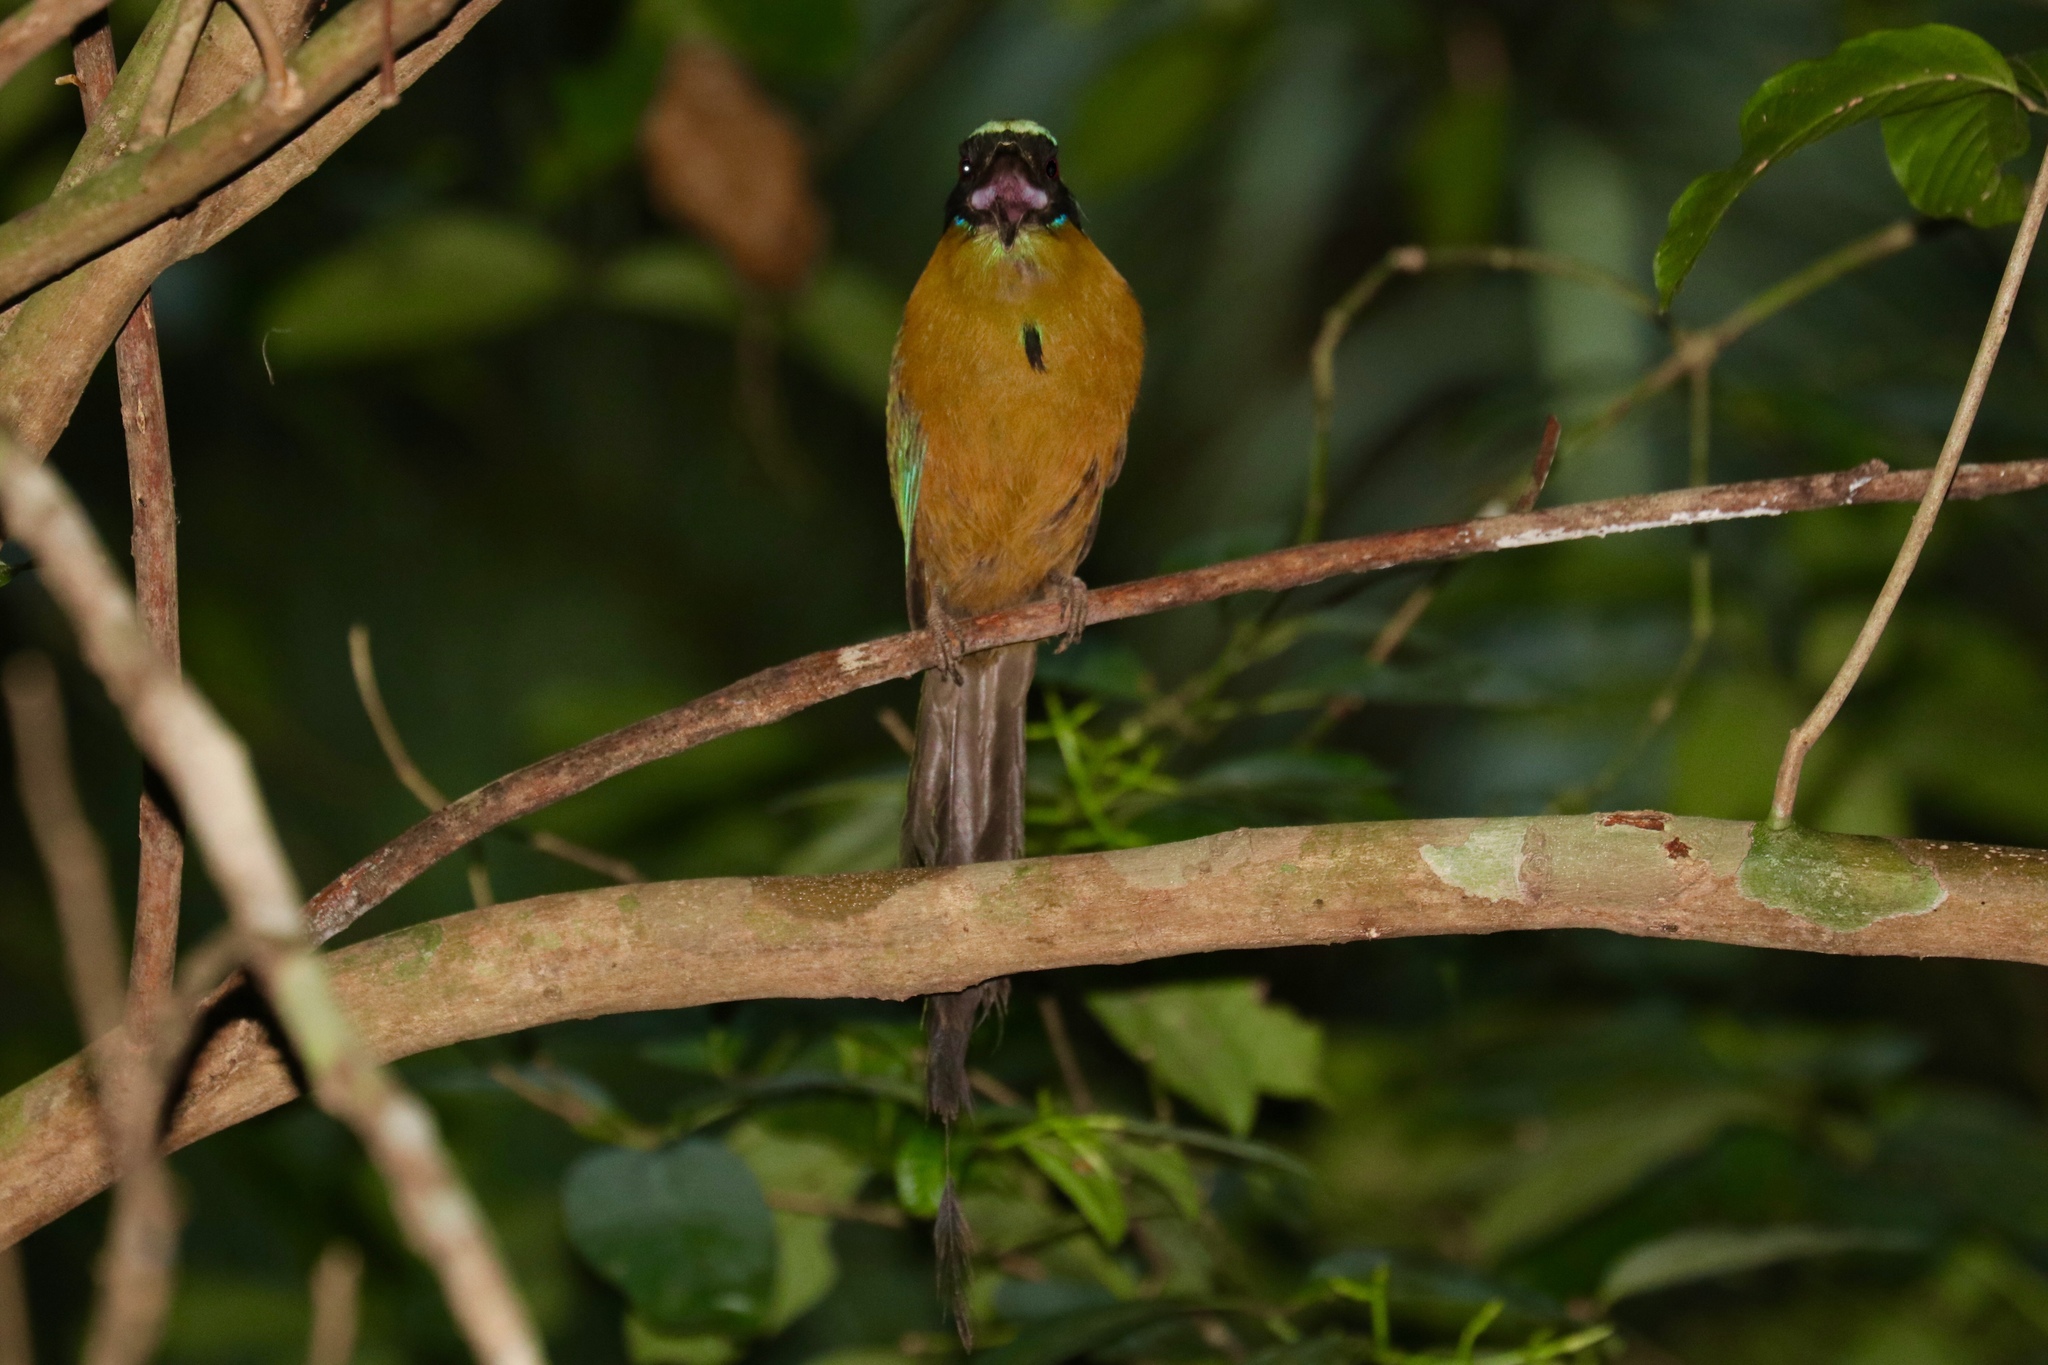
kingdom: Animalia
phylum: Chordata
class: Aves
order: Coraciiformes
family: Momotidae
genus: Momotus
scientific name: Momotus subrufescens
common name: Whooping motmot
